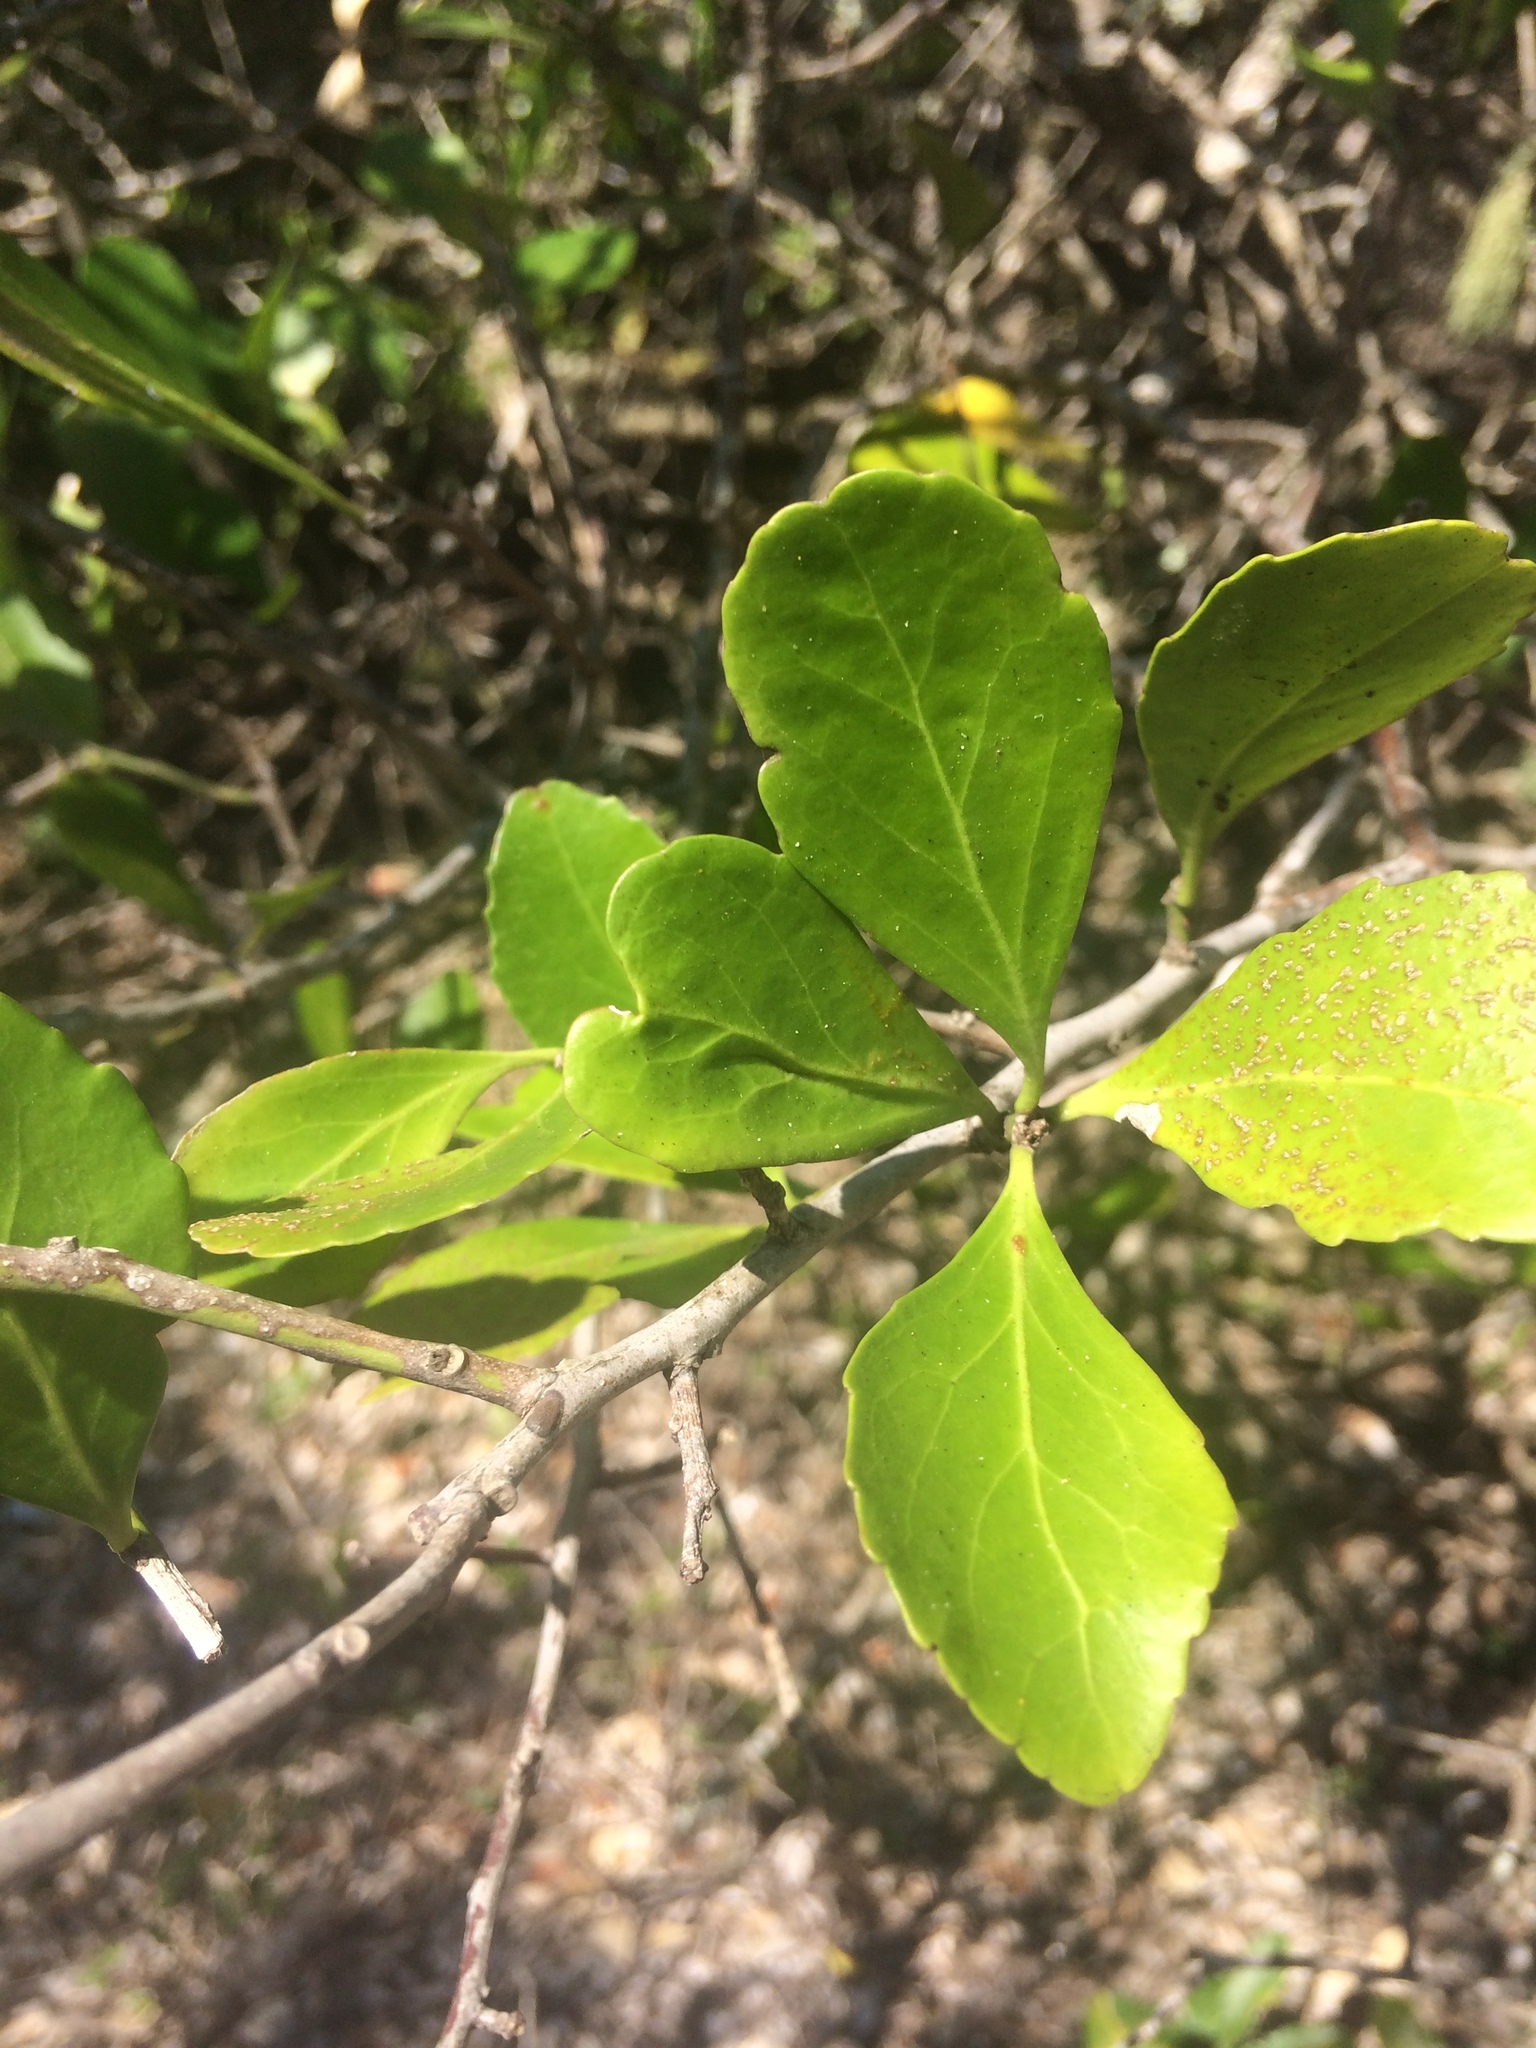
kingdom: Plantae
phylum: Tracheophyta
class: Magnoliopsida
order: Celastrales
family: Celastraceae
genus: Gymnosporia
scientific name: Gymnosporia nemorosa
